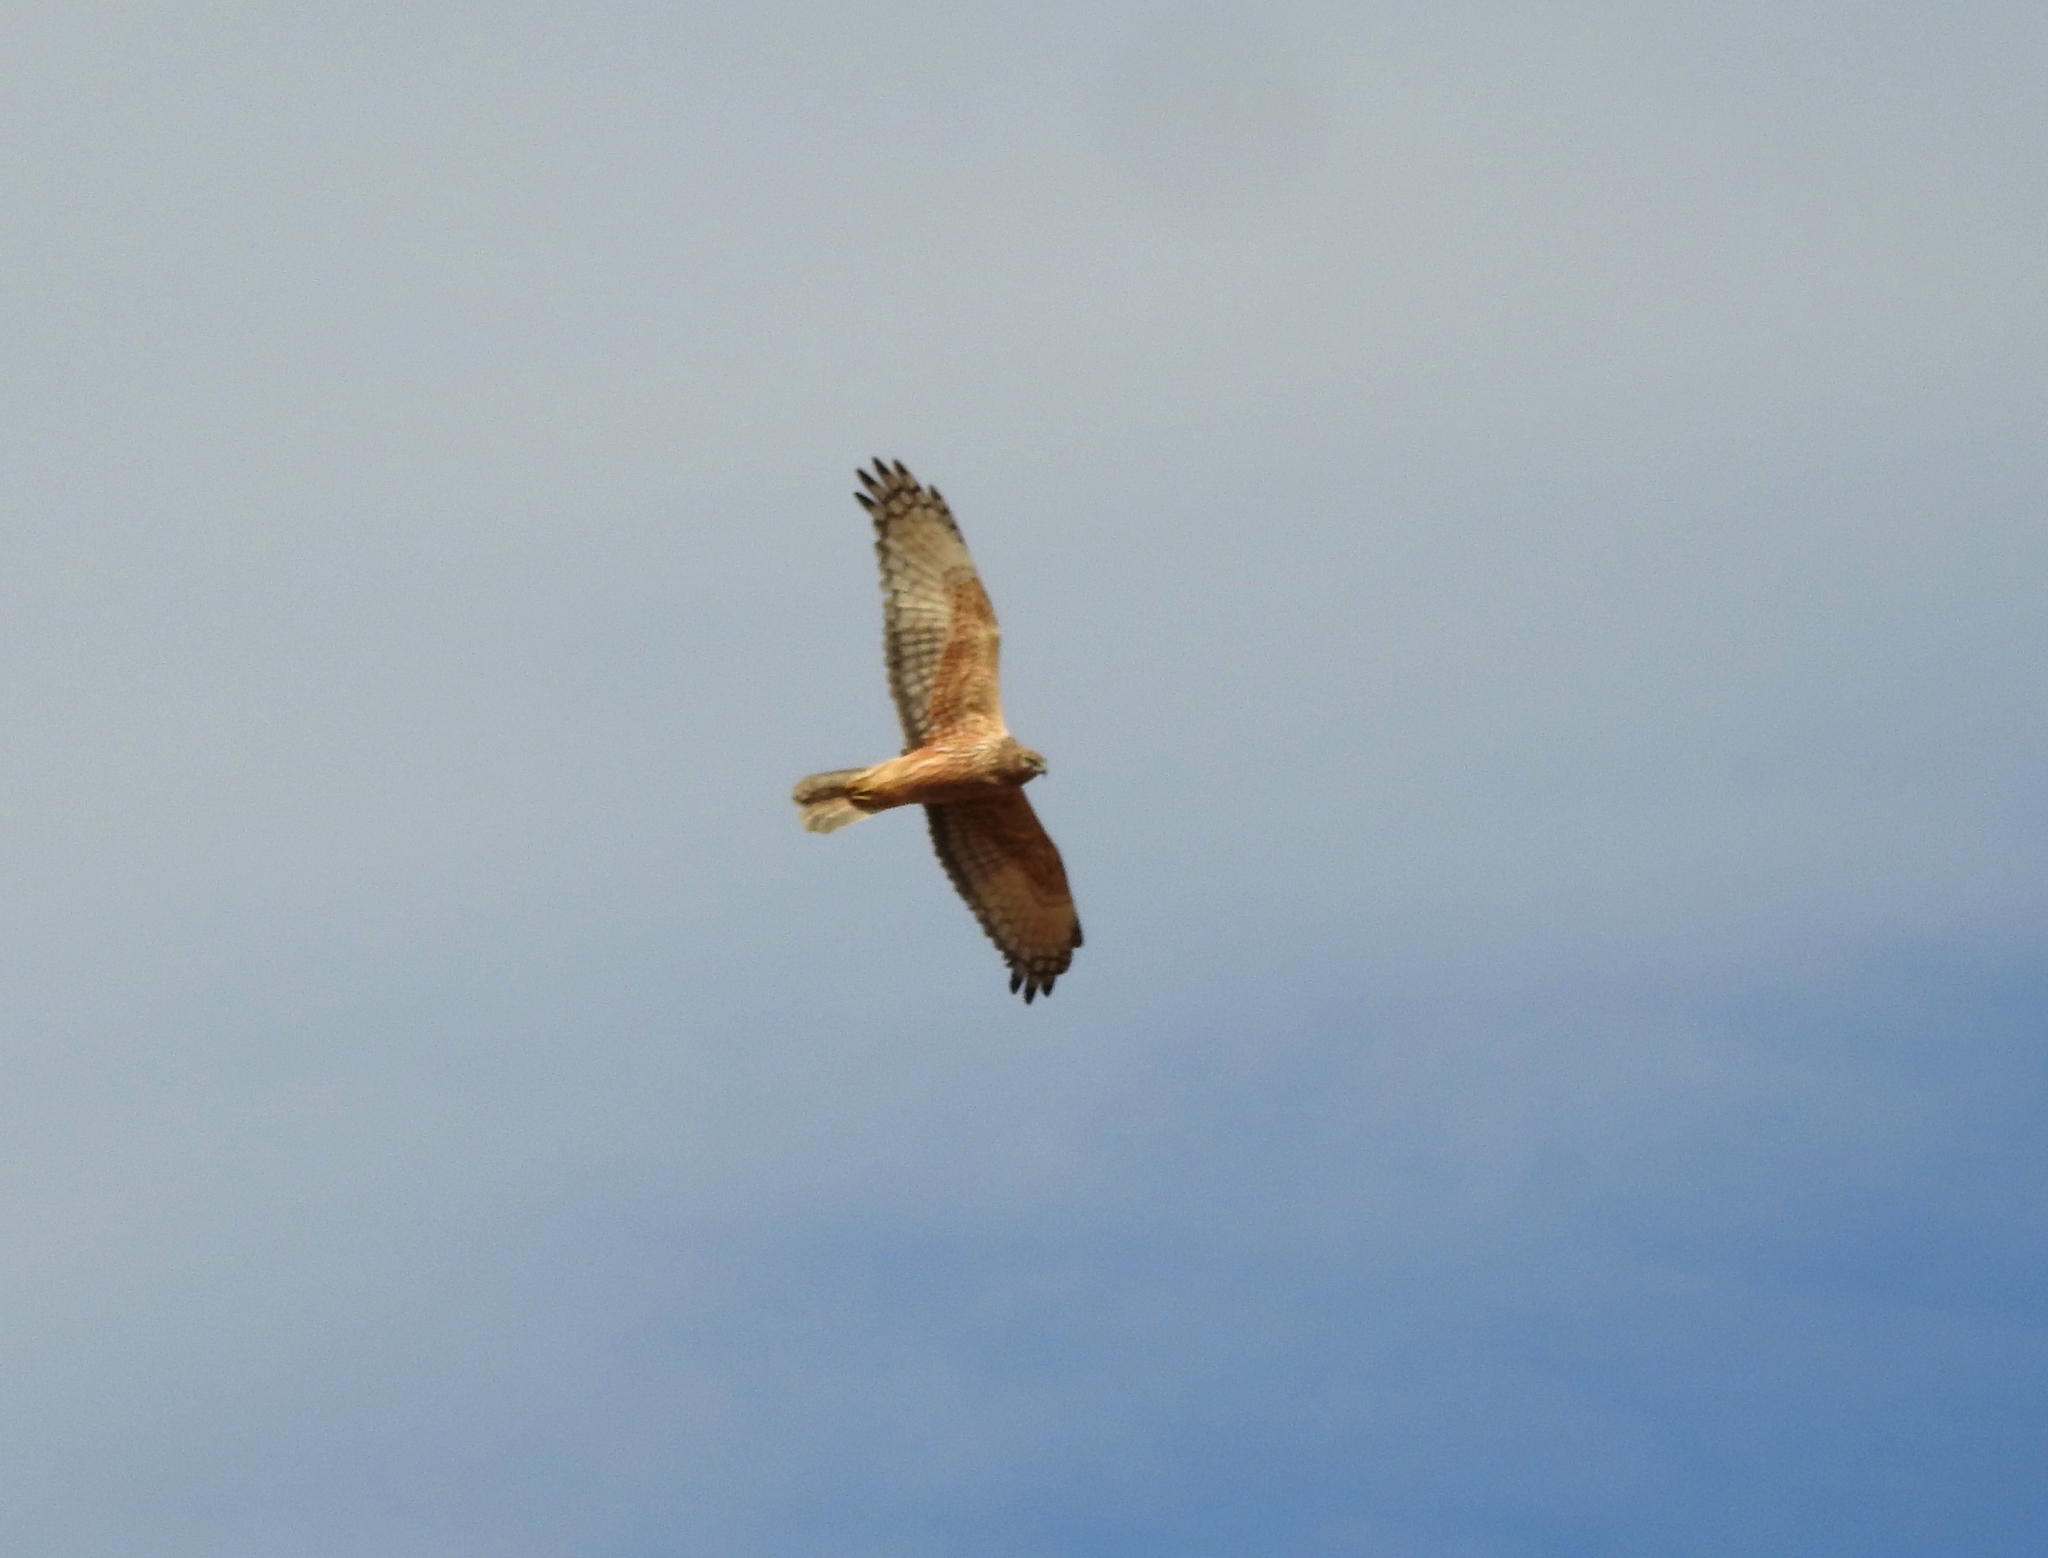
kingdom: Animalia
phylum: Chordata
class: Aves
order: Accipitriformes
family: Accipitridae
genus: Circus
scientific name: Circus spilonotus
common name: Eastern marsh-harrier
